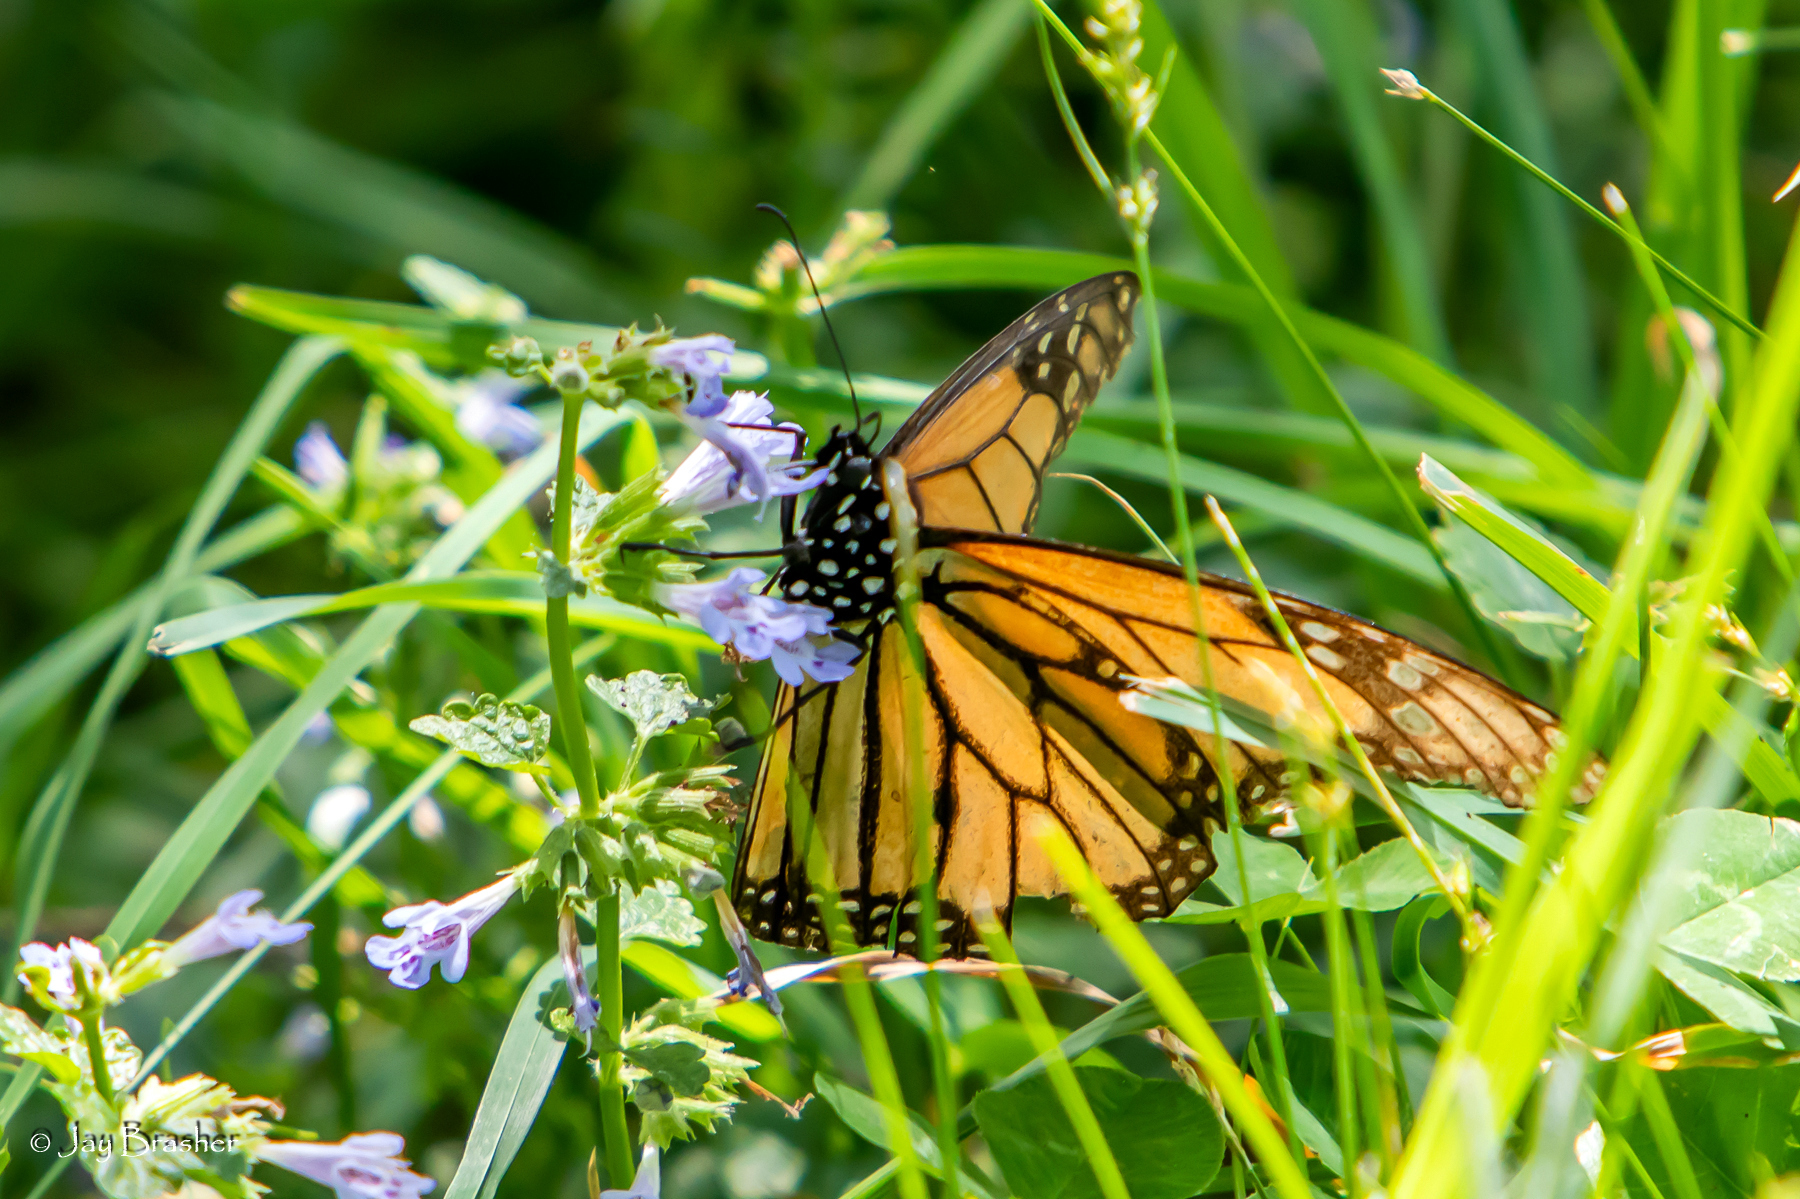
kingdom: Plantae
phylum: Tracheophyta
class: Magnoliopsida
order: Lamiales
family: Lamiaceae
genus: Glechoma
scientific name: Glechoma hederacea
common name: Ground ivy
